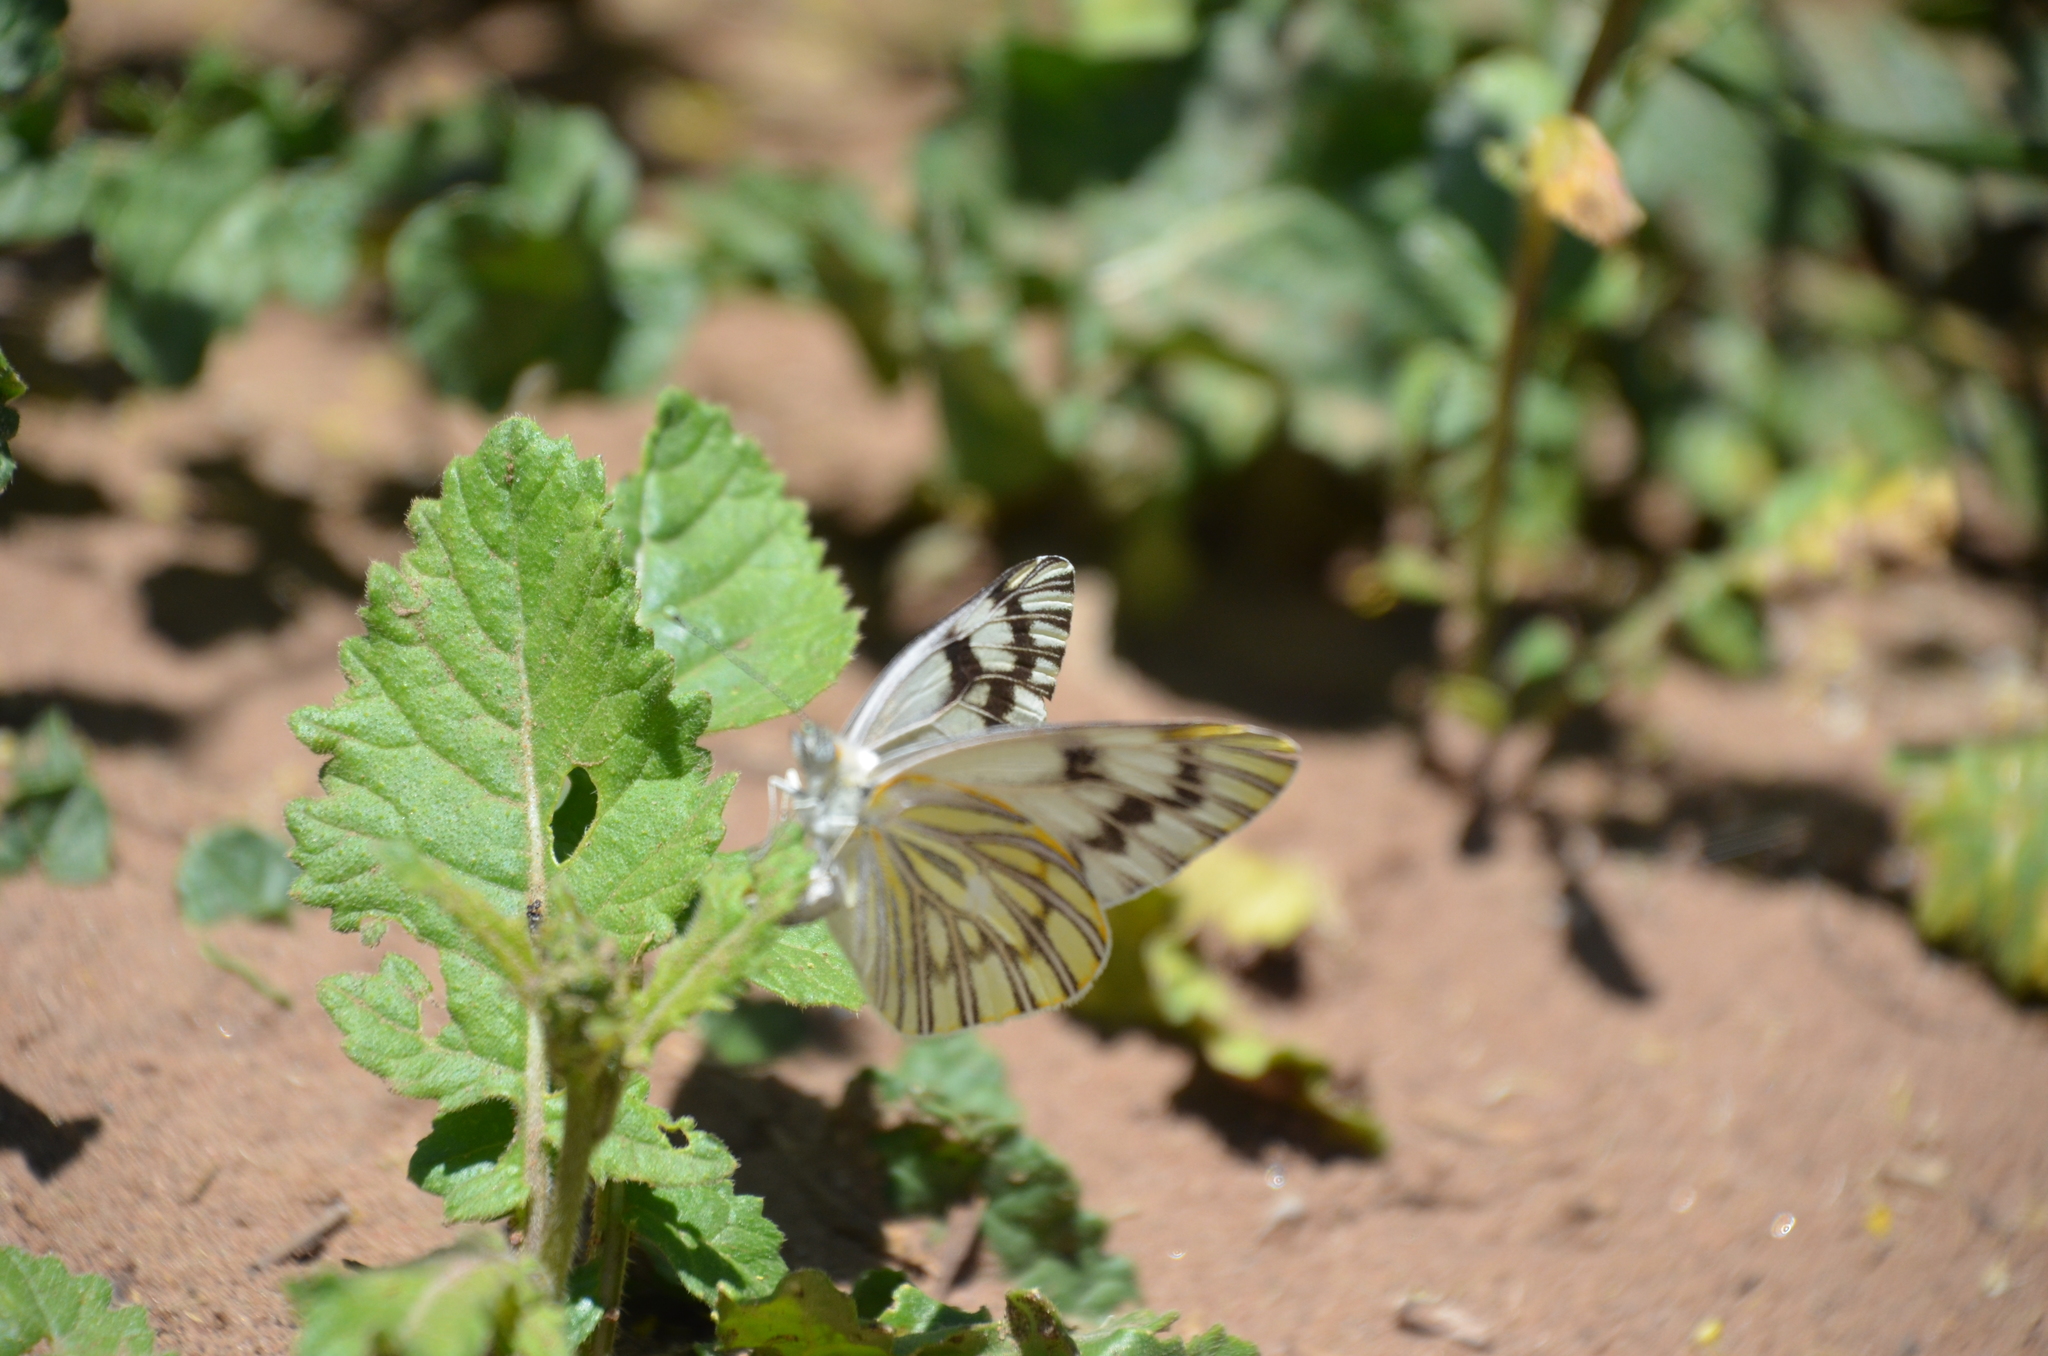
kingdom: Animalia
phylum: Arthropoda
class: Insecta
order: Lepidoptera
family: Pieridae
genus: Tatochila
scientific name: Tatochila mercedis
